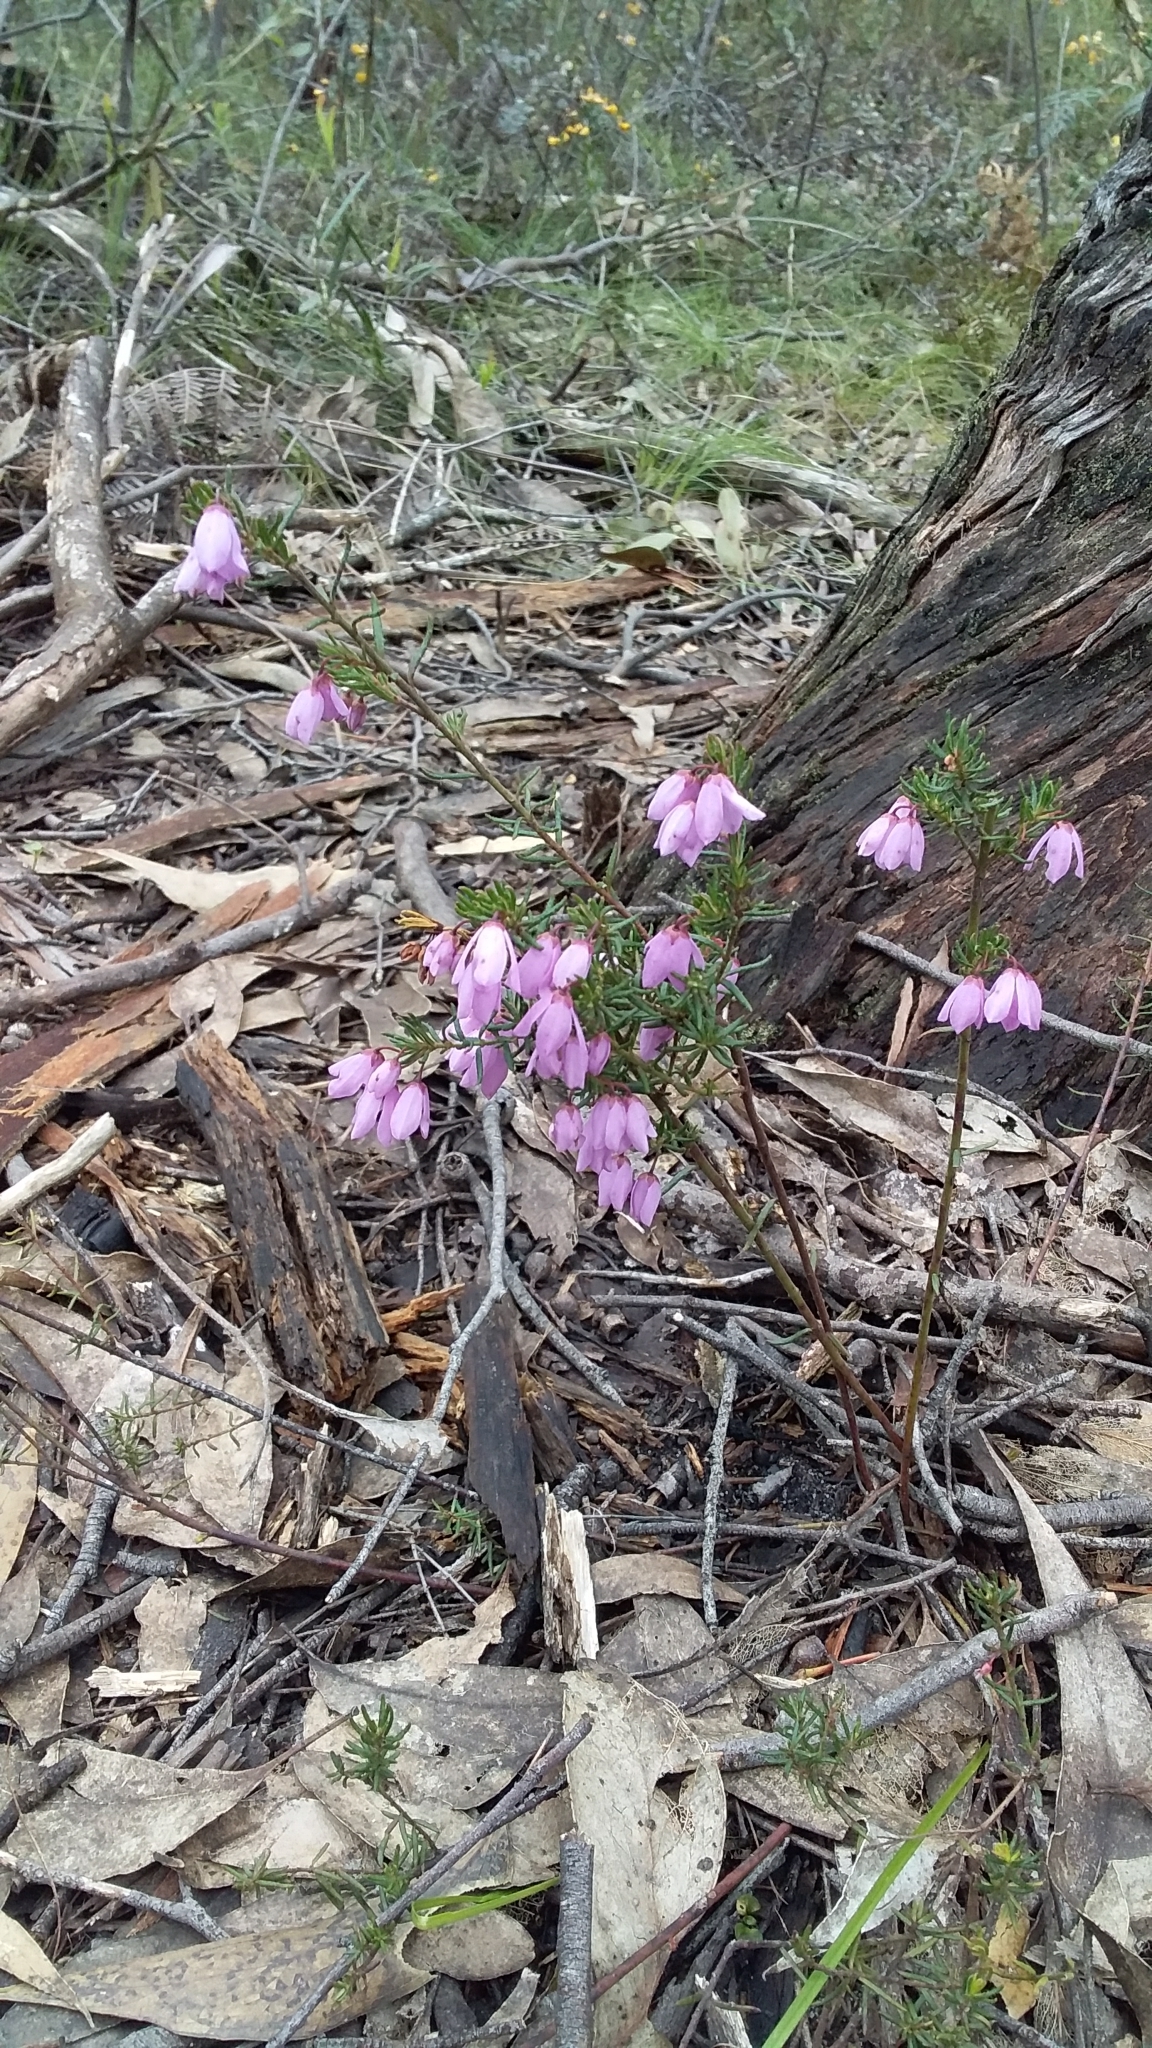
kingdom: Plantae
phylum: Tracheophyta
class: Magnoliopsida
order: Oxalidales
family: Elaeocarpaceae
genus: Tetratheca
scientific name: Tetratheca pilosa
